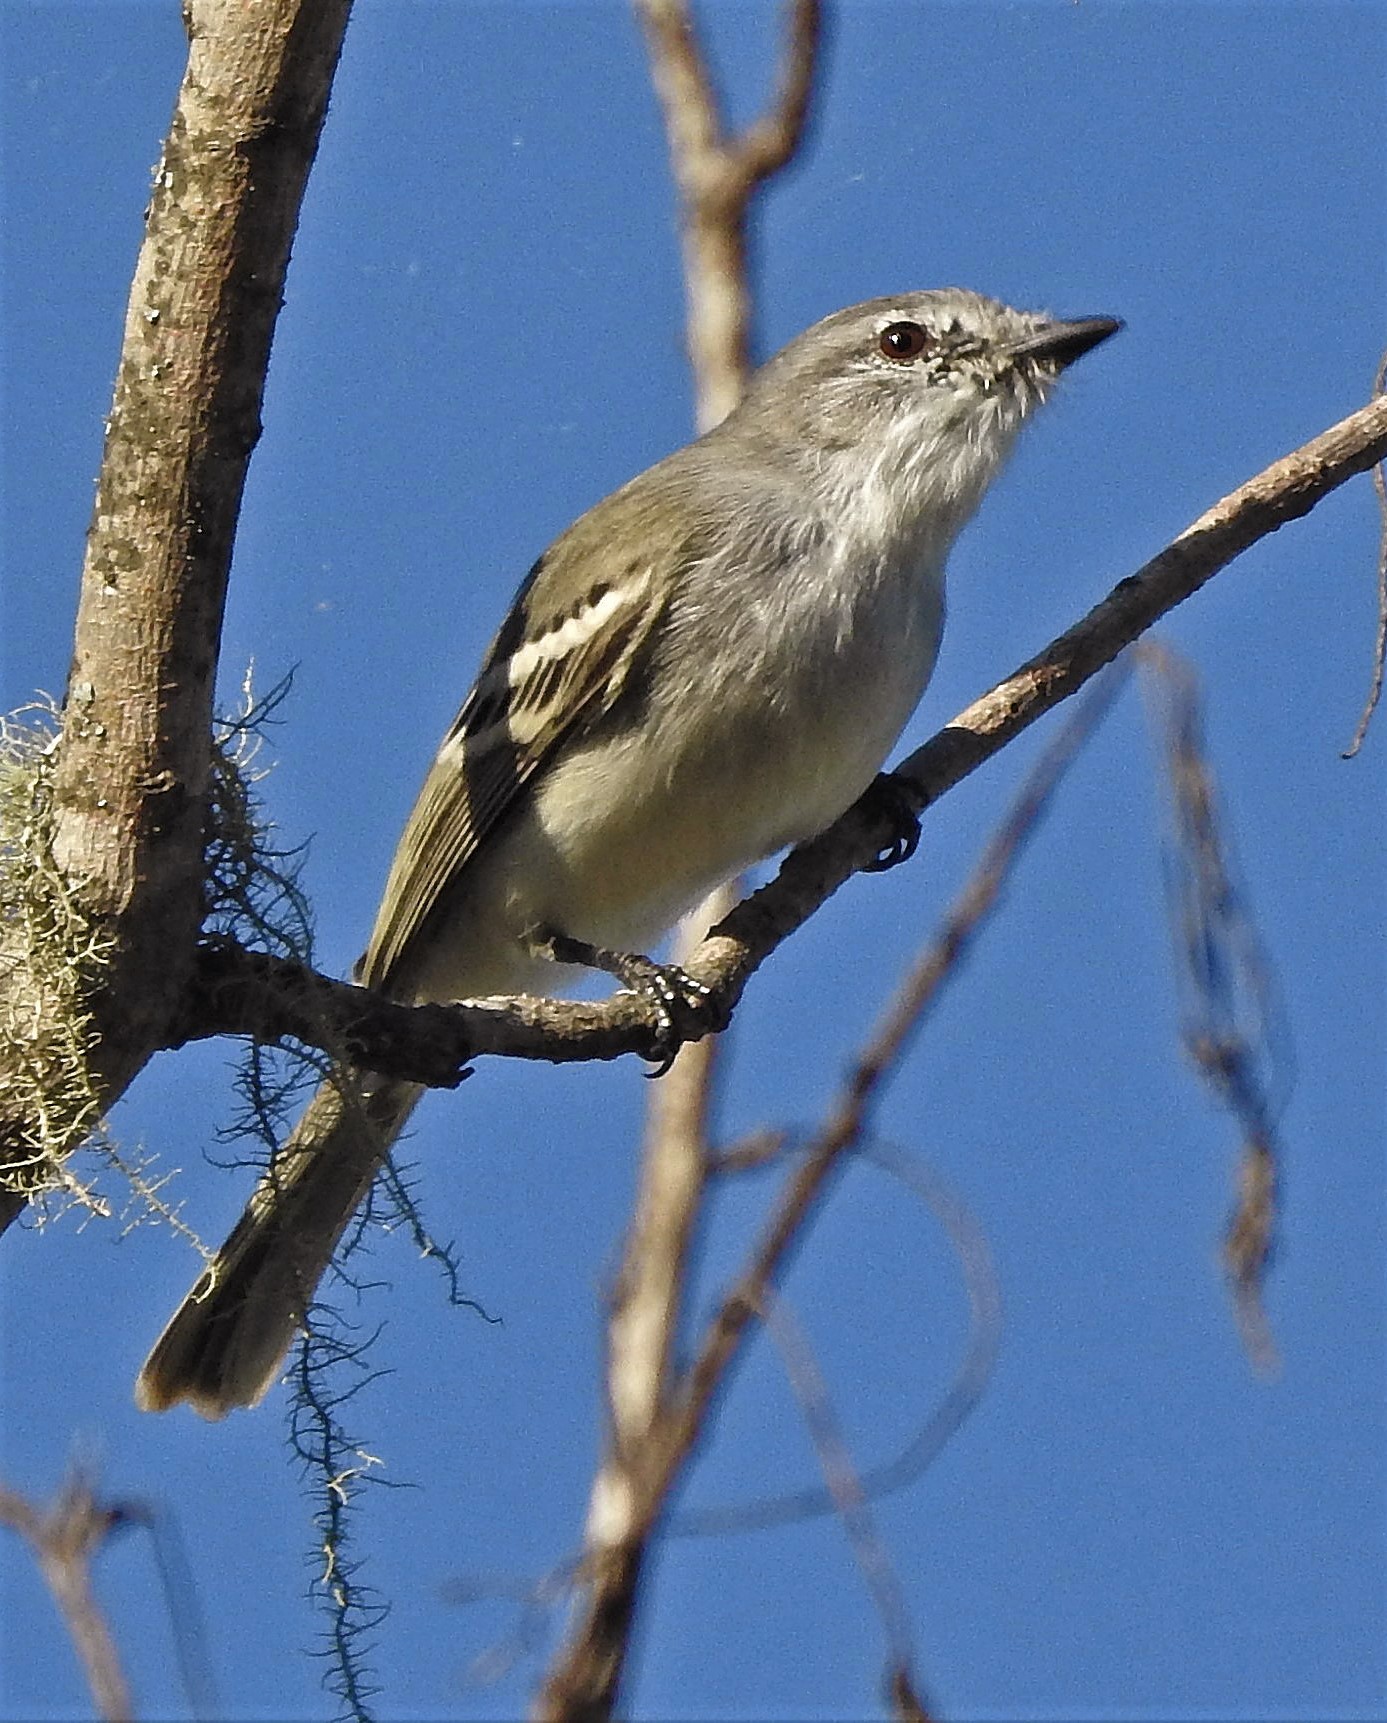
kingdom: Animalia
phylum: Chordata
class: Aves
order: Passeriformes
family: Tyrannidae
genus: Suiriri
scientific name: Suiriri suiriri
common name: Suiriri flycatcher
